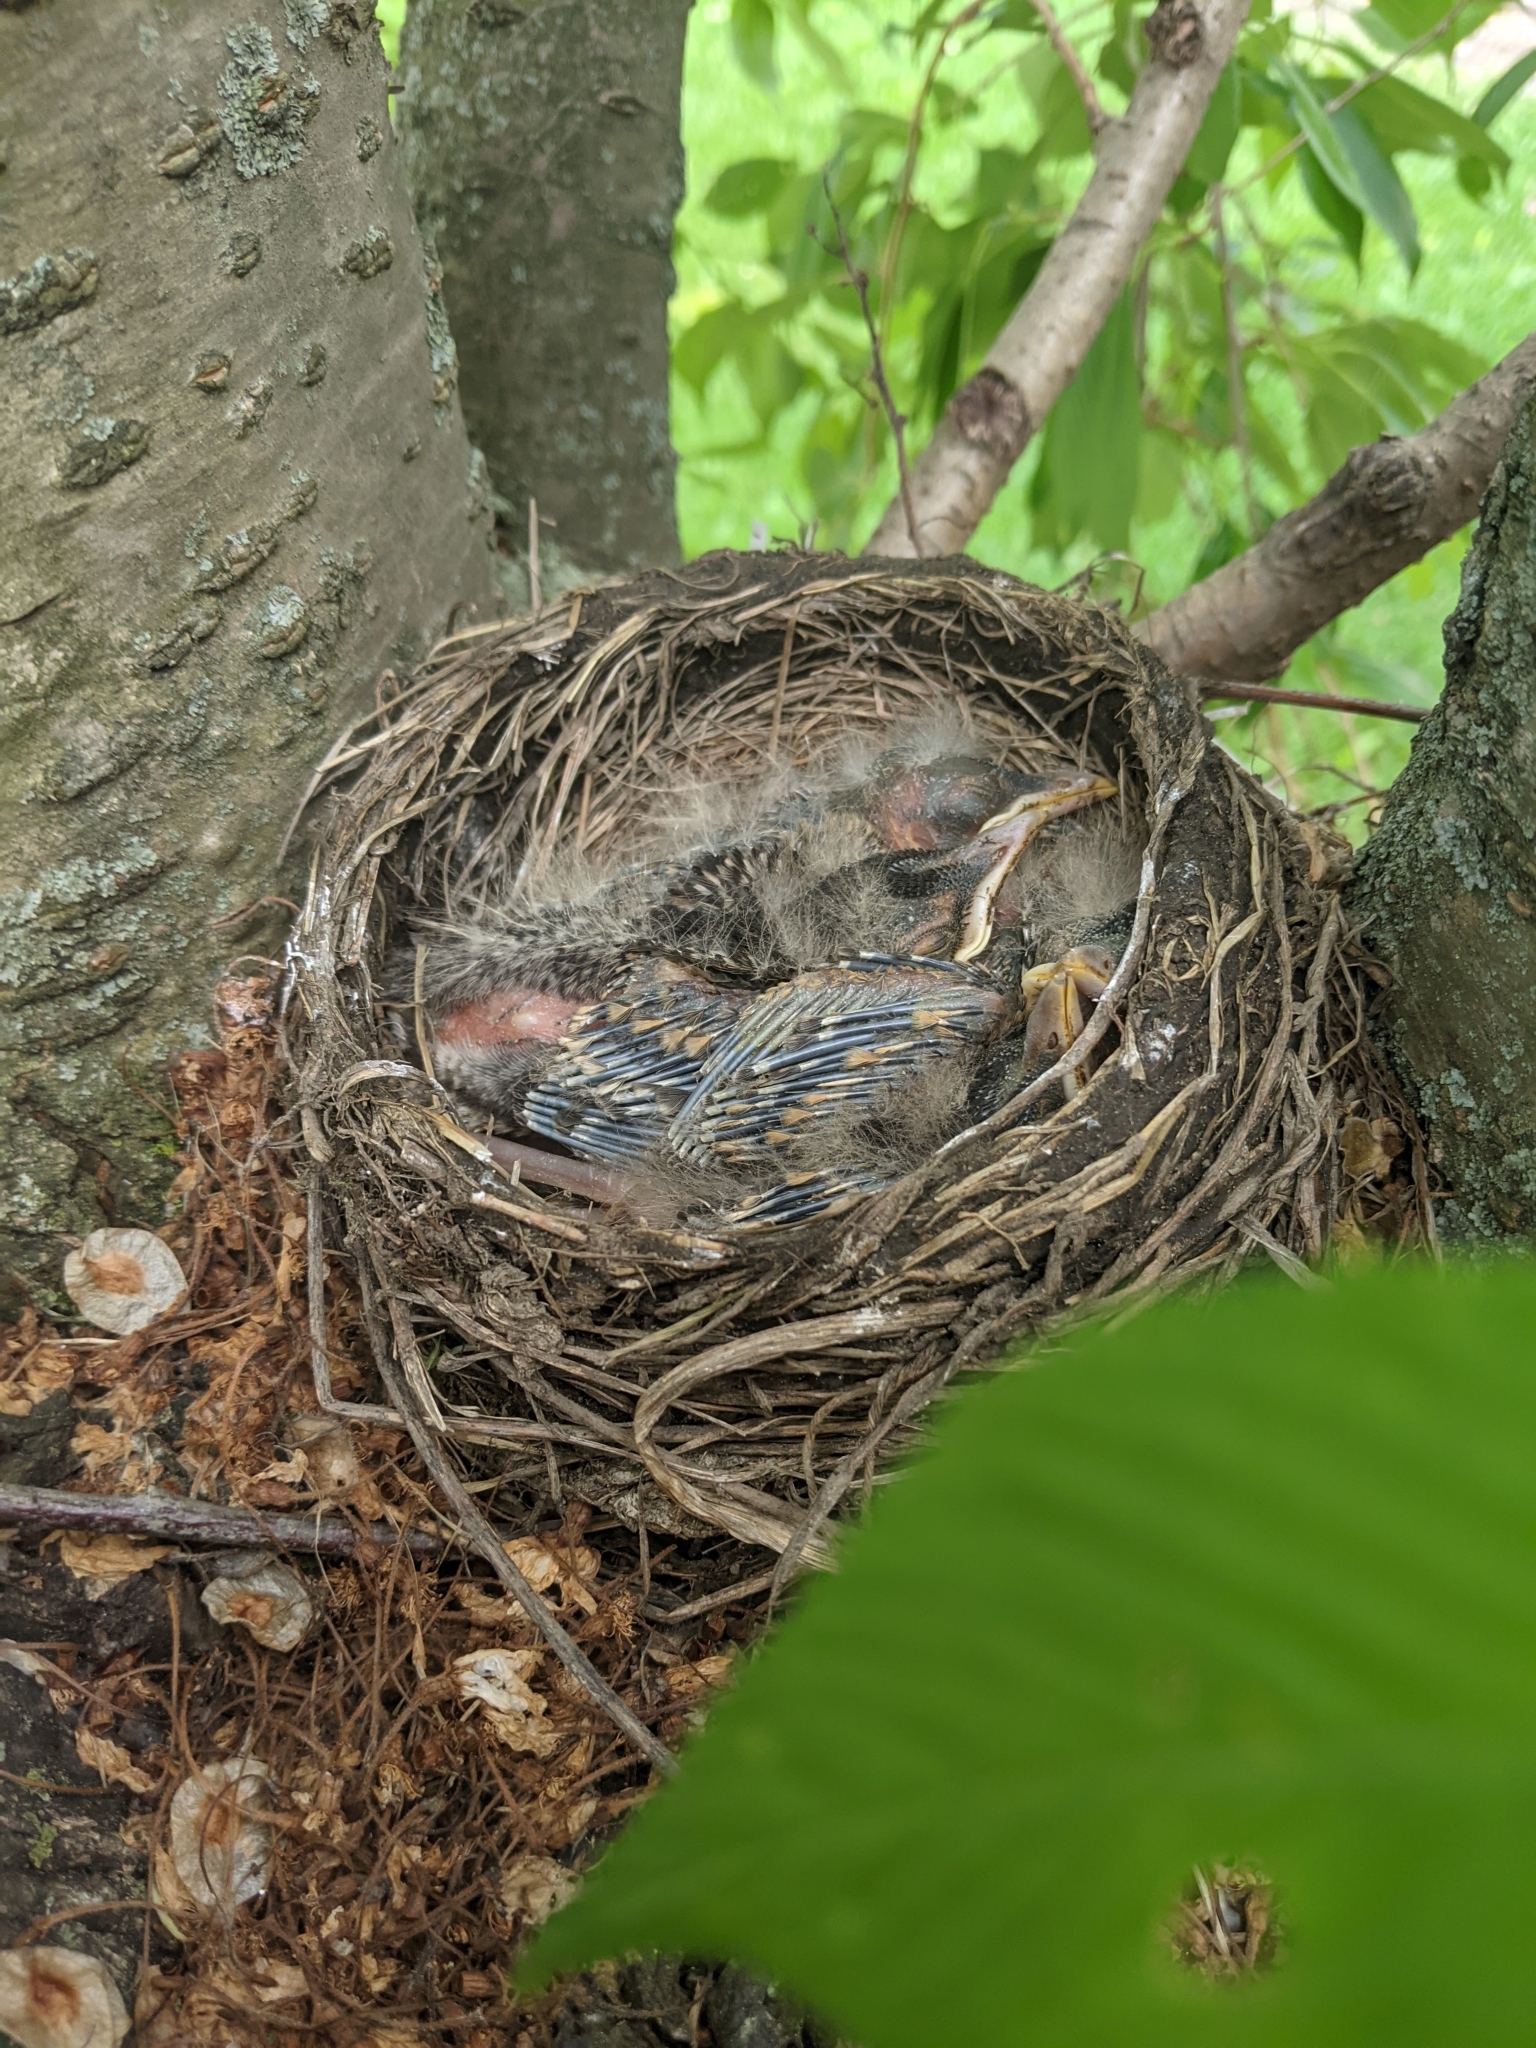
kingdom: Animalia
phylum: Chordata
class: Aves
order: Passeriformes
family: Turdidae
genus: Turdus
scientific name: Turdus migratorius
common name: American robin
